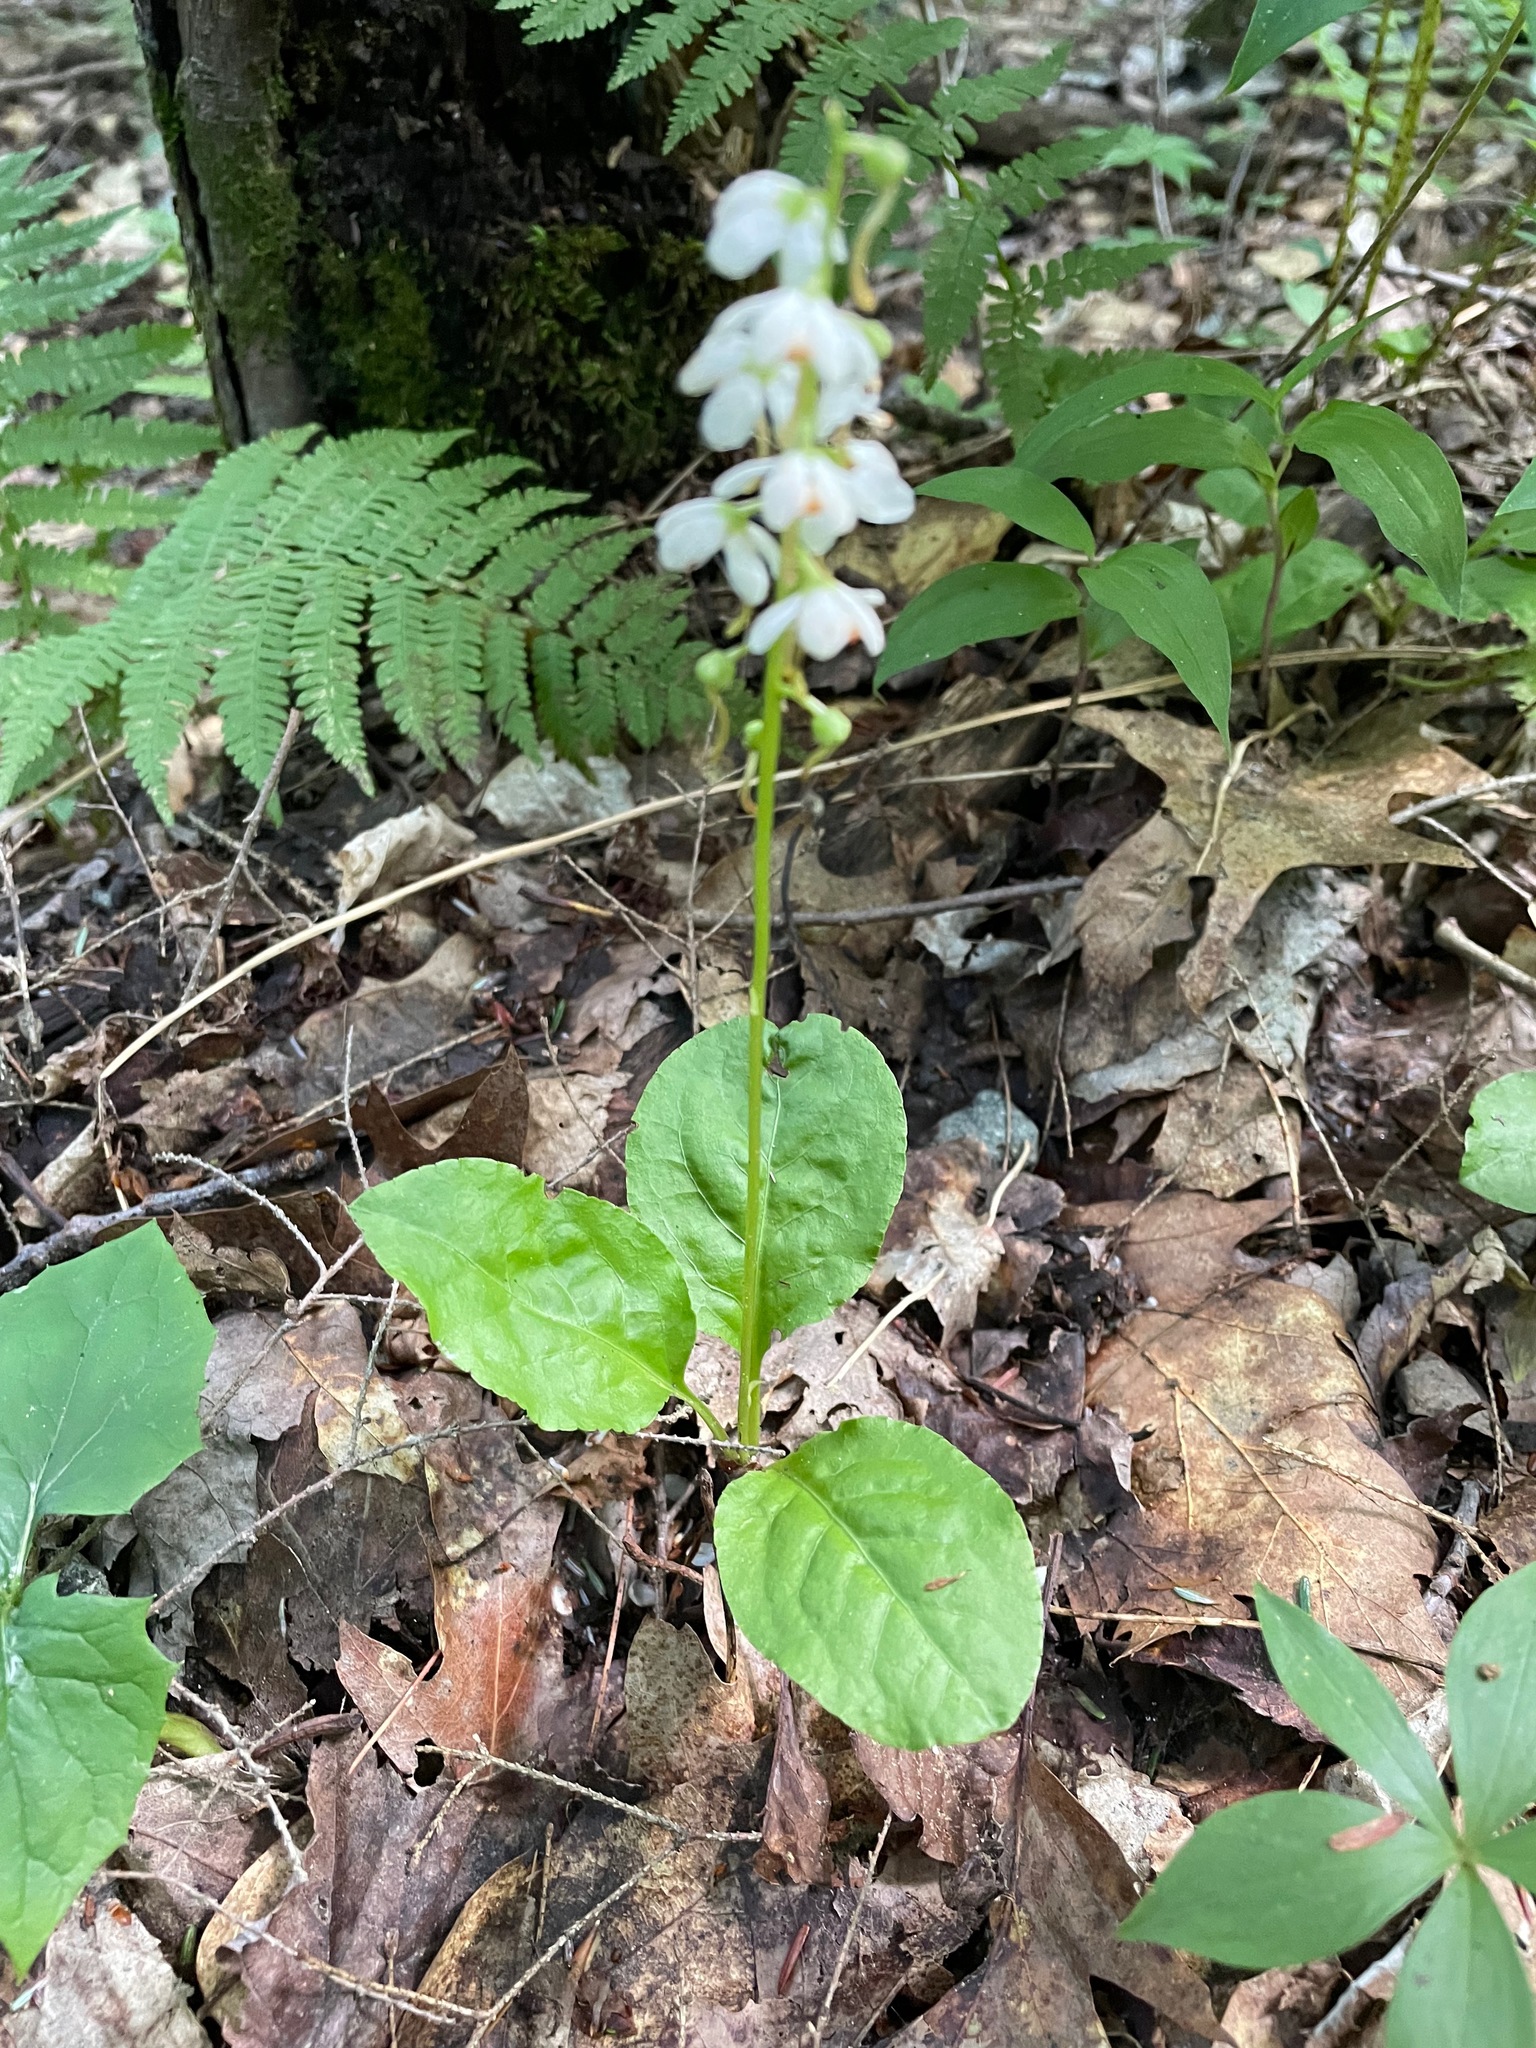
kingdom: Plantae
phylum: Tracheophyta
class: Magnoliopsida
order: Ericales
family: Ericaceae
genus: Pyrola
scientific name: Pyrola elliptica
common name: Shinleaf
